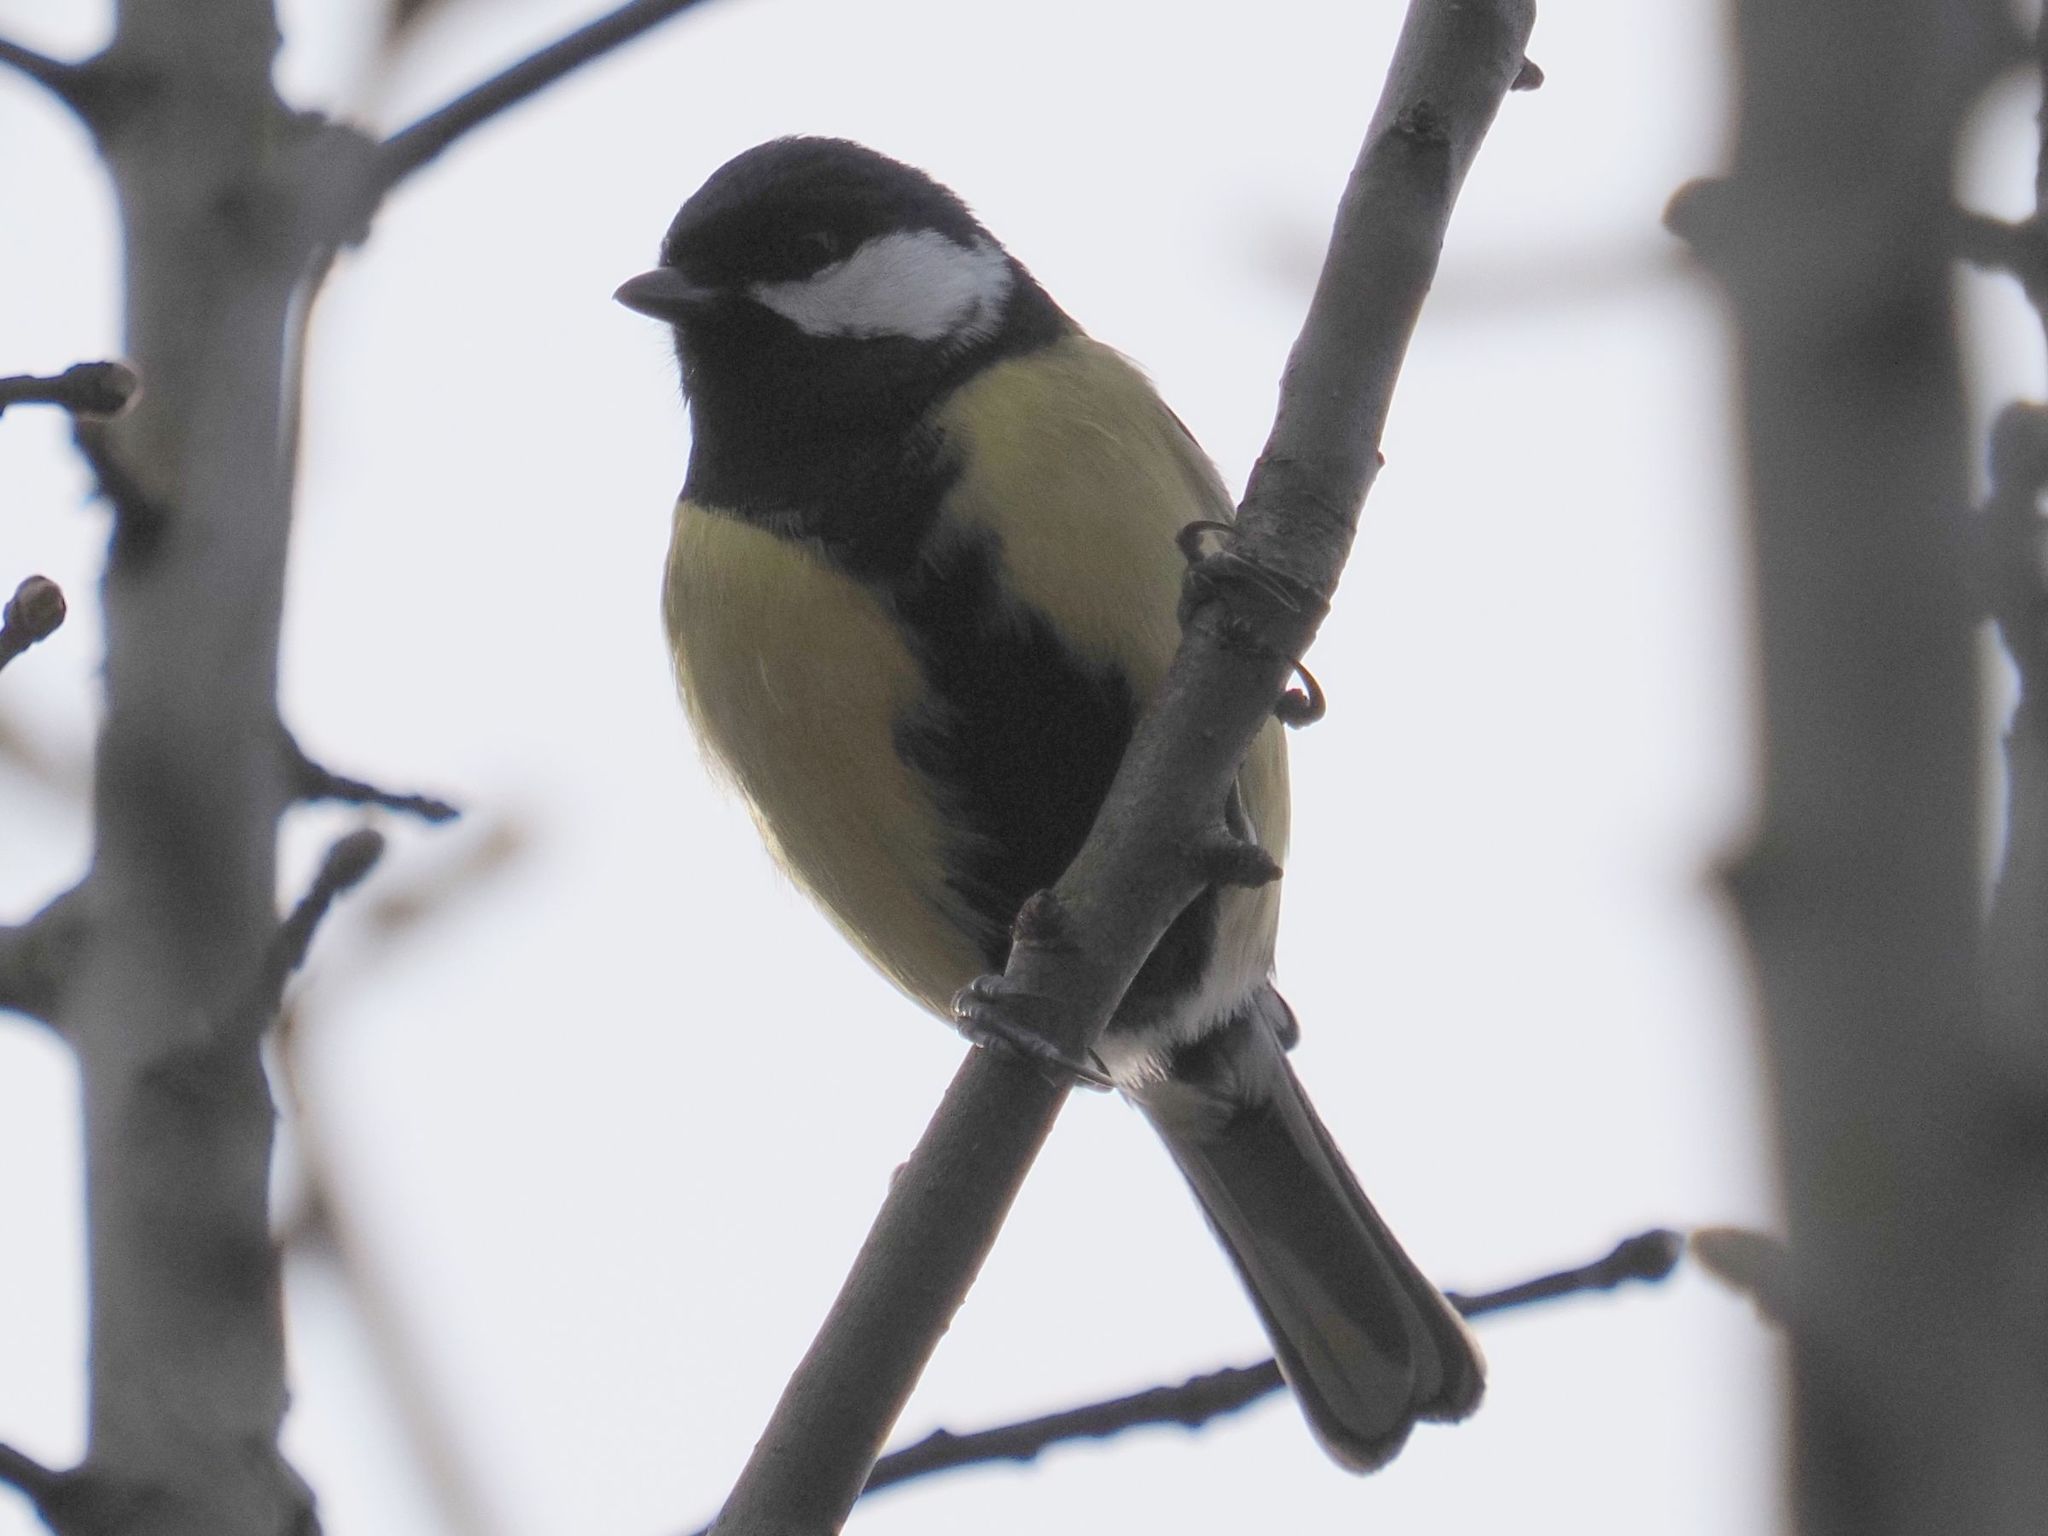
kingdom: Animalia
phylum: Chordata
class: Aves
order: Passeriformes
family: Paridae
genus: Parus
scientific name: Parus major
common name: Great tit
